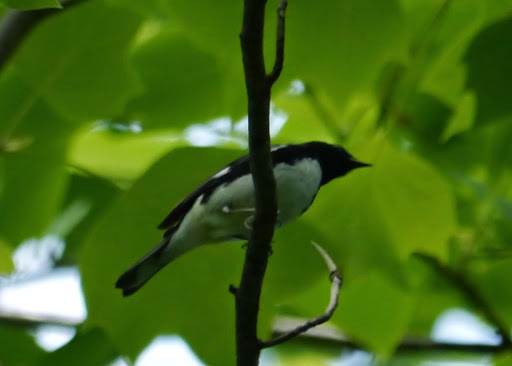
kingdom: Animalia
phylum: Chordata
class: Aves
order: Passeriformes
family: Parulidae
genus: Setophaga
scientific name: Setophaga caerulescens
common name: Black-throated blue warbler
